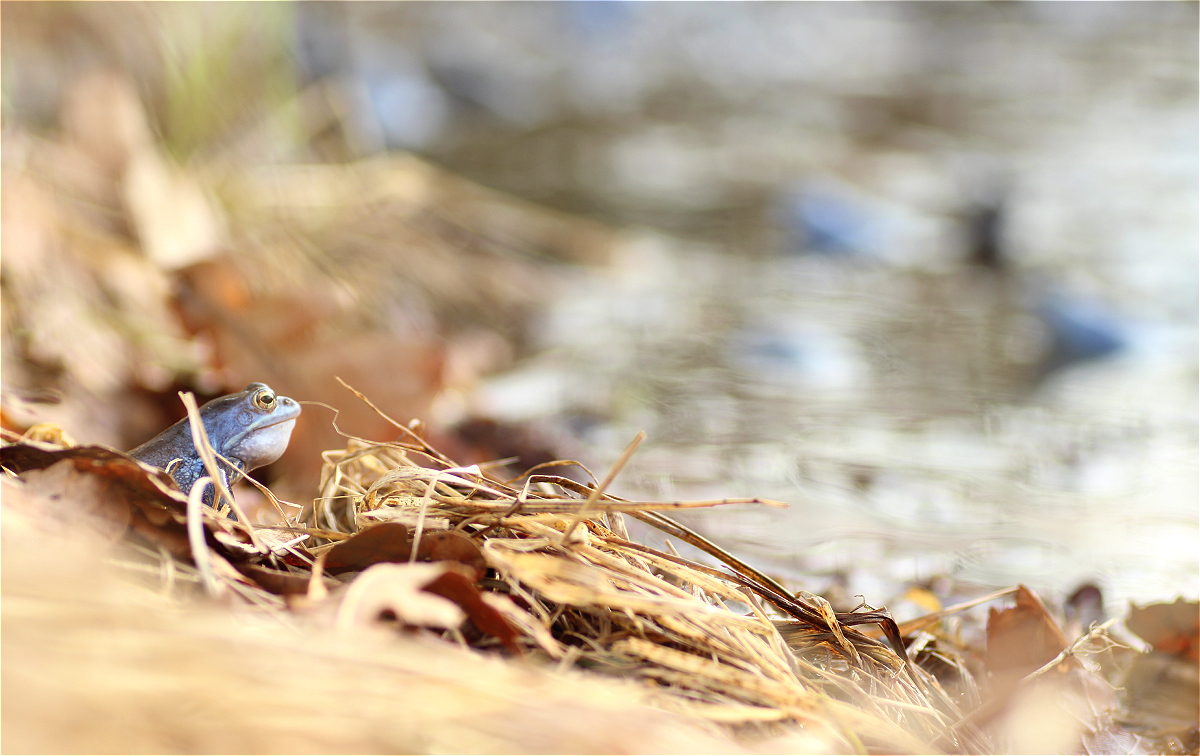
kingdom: Animalia
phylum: Chordata
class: Amphibia
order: Anura
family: Ranidae
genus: Rana
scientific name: Rana arvalis
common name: Moor frog
